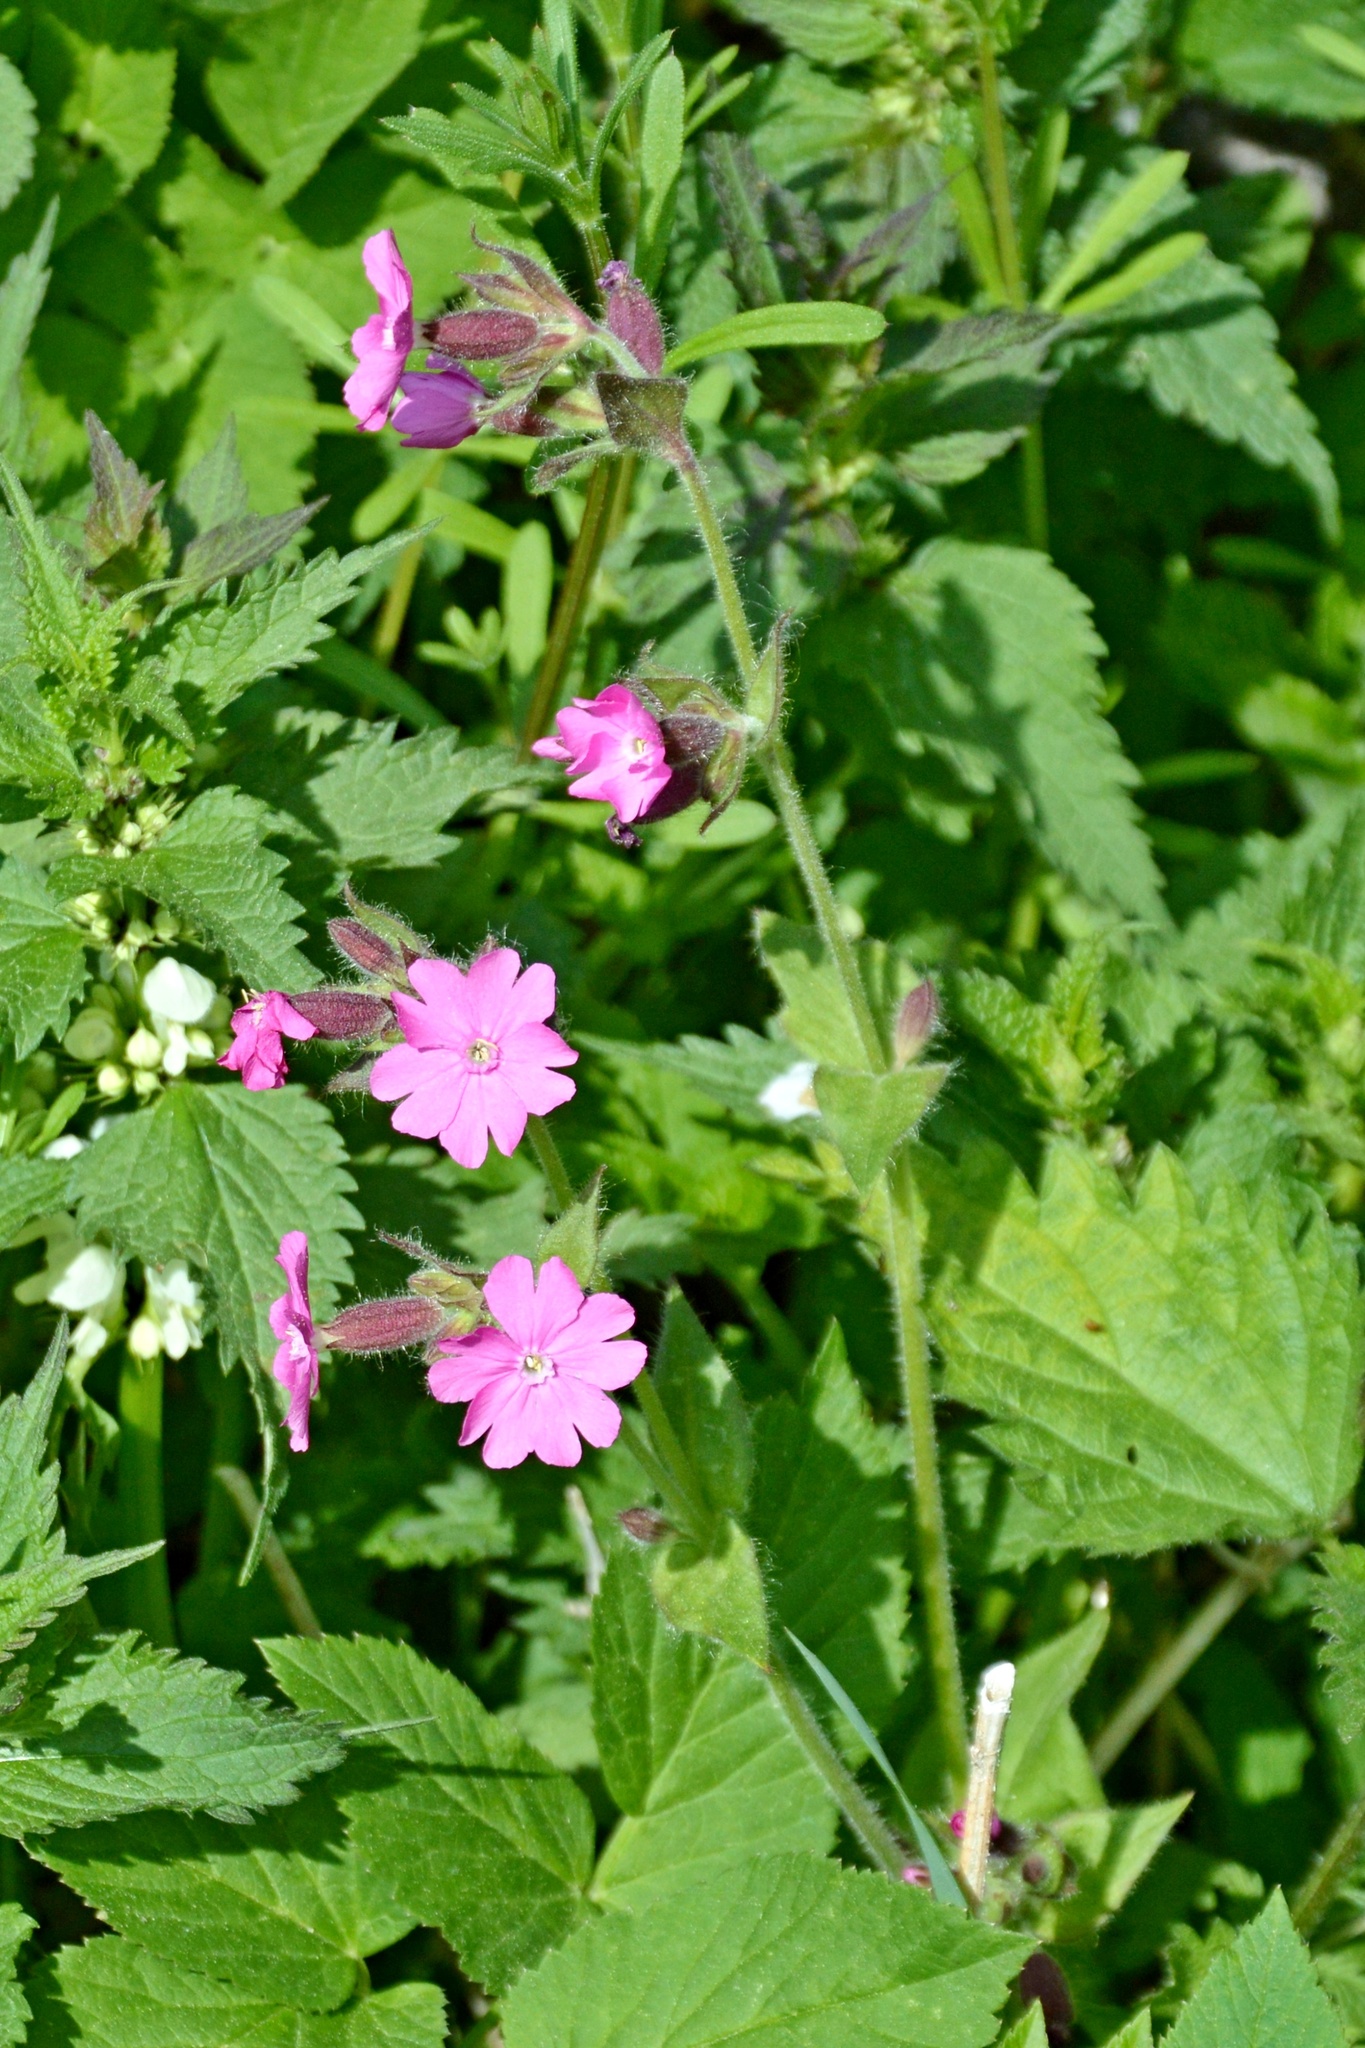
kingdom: Plantae
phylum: Tracheophyta
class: Magnoliopsida
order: Caryophyllales
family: Caryophyllaceae
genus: Silene
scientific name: Silene dioica
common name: Red campion
